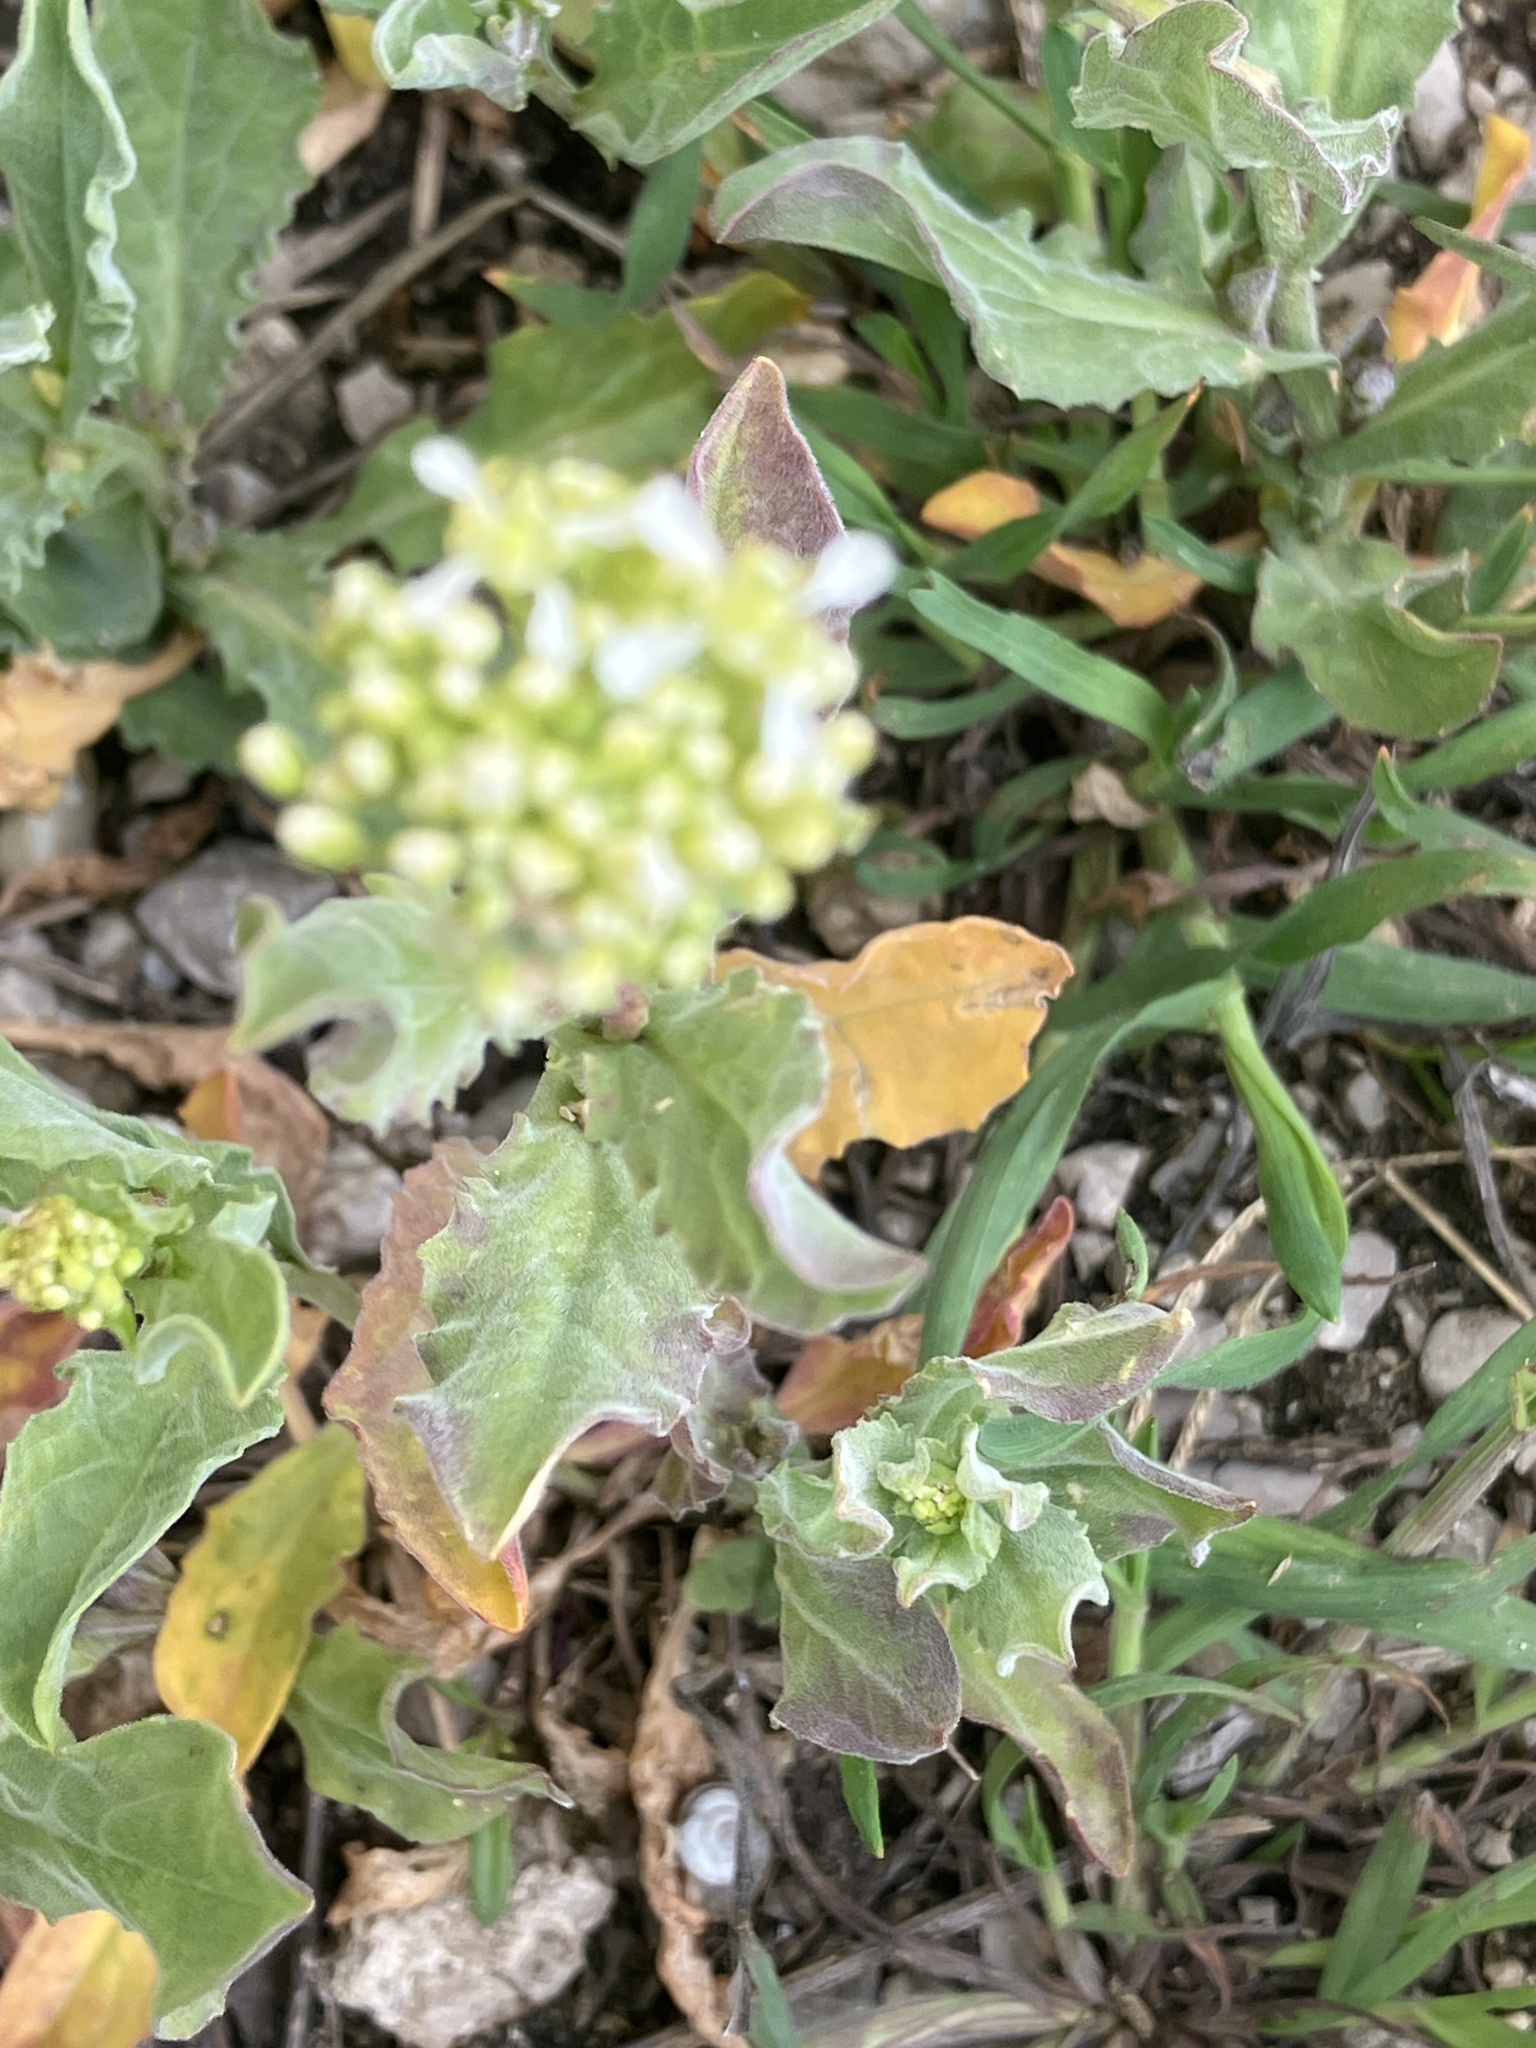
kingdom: Plantae
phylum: Tracheophyta
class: Magnoliopsida
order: Brassicales
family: Brassicaceae
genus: Lepidium
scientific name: Lepidium draba
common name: Hoary cress
